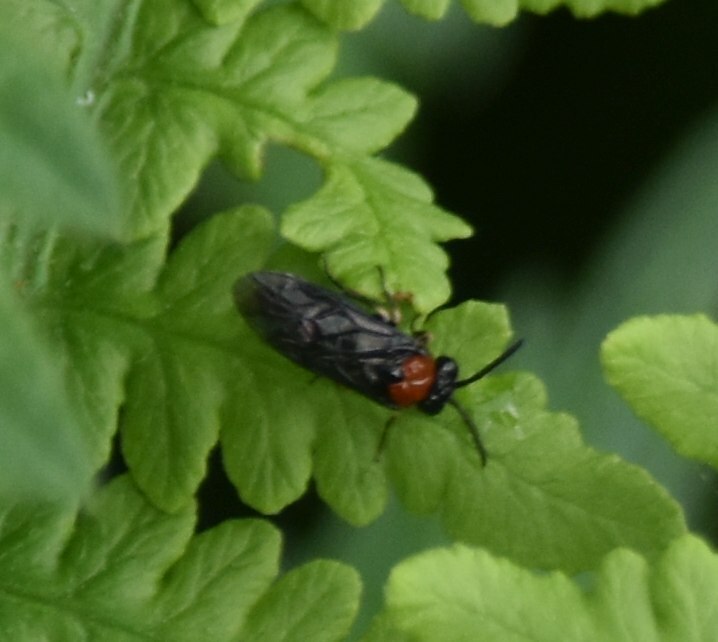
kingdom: Animalia
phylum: Arthropoda
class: Insecta
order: Hymenoptera
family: Tenthredinidae
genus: Eutomostethus
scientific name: Eutomostethus ephippium
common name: Tenthredid wasp
